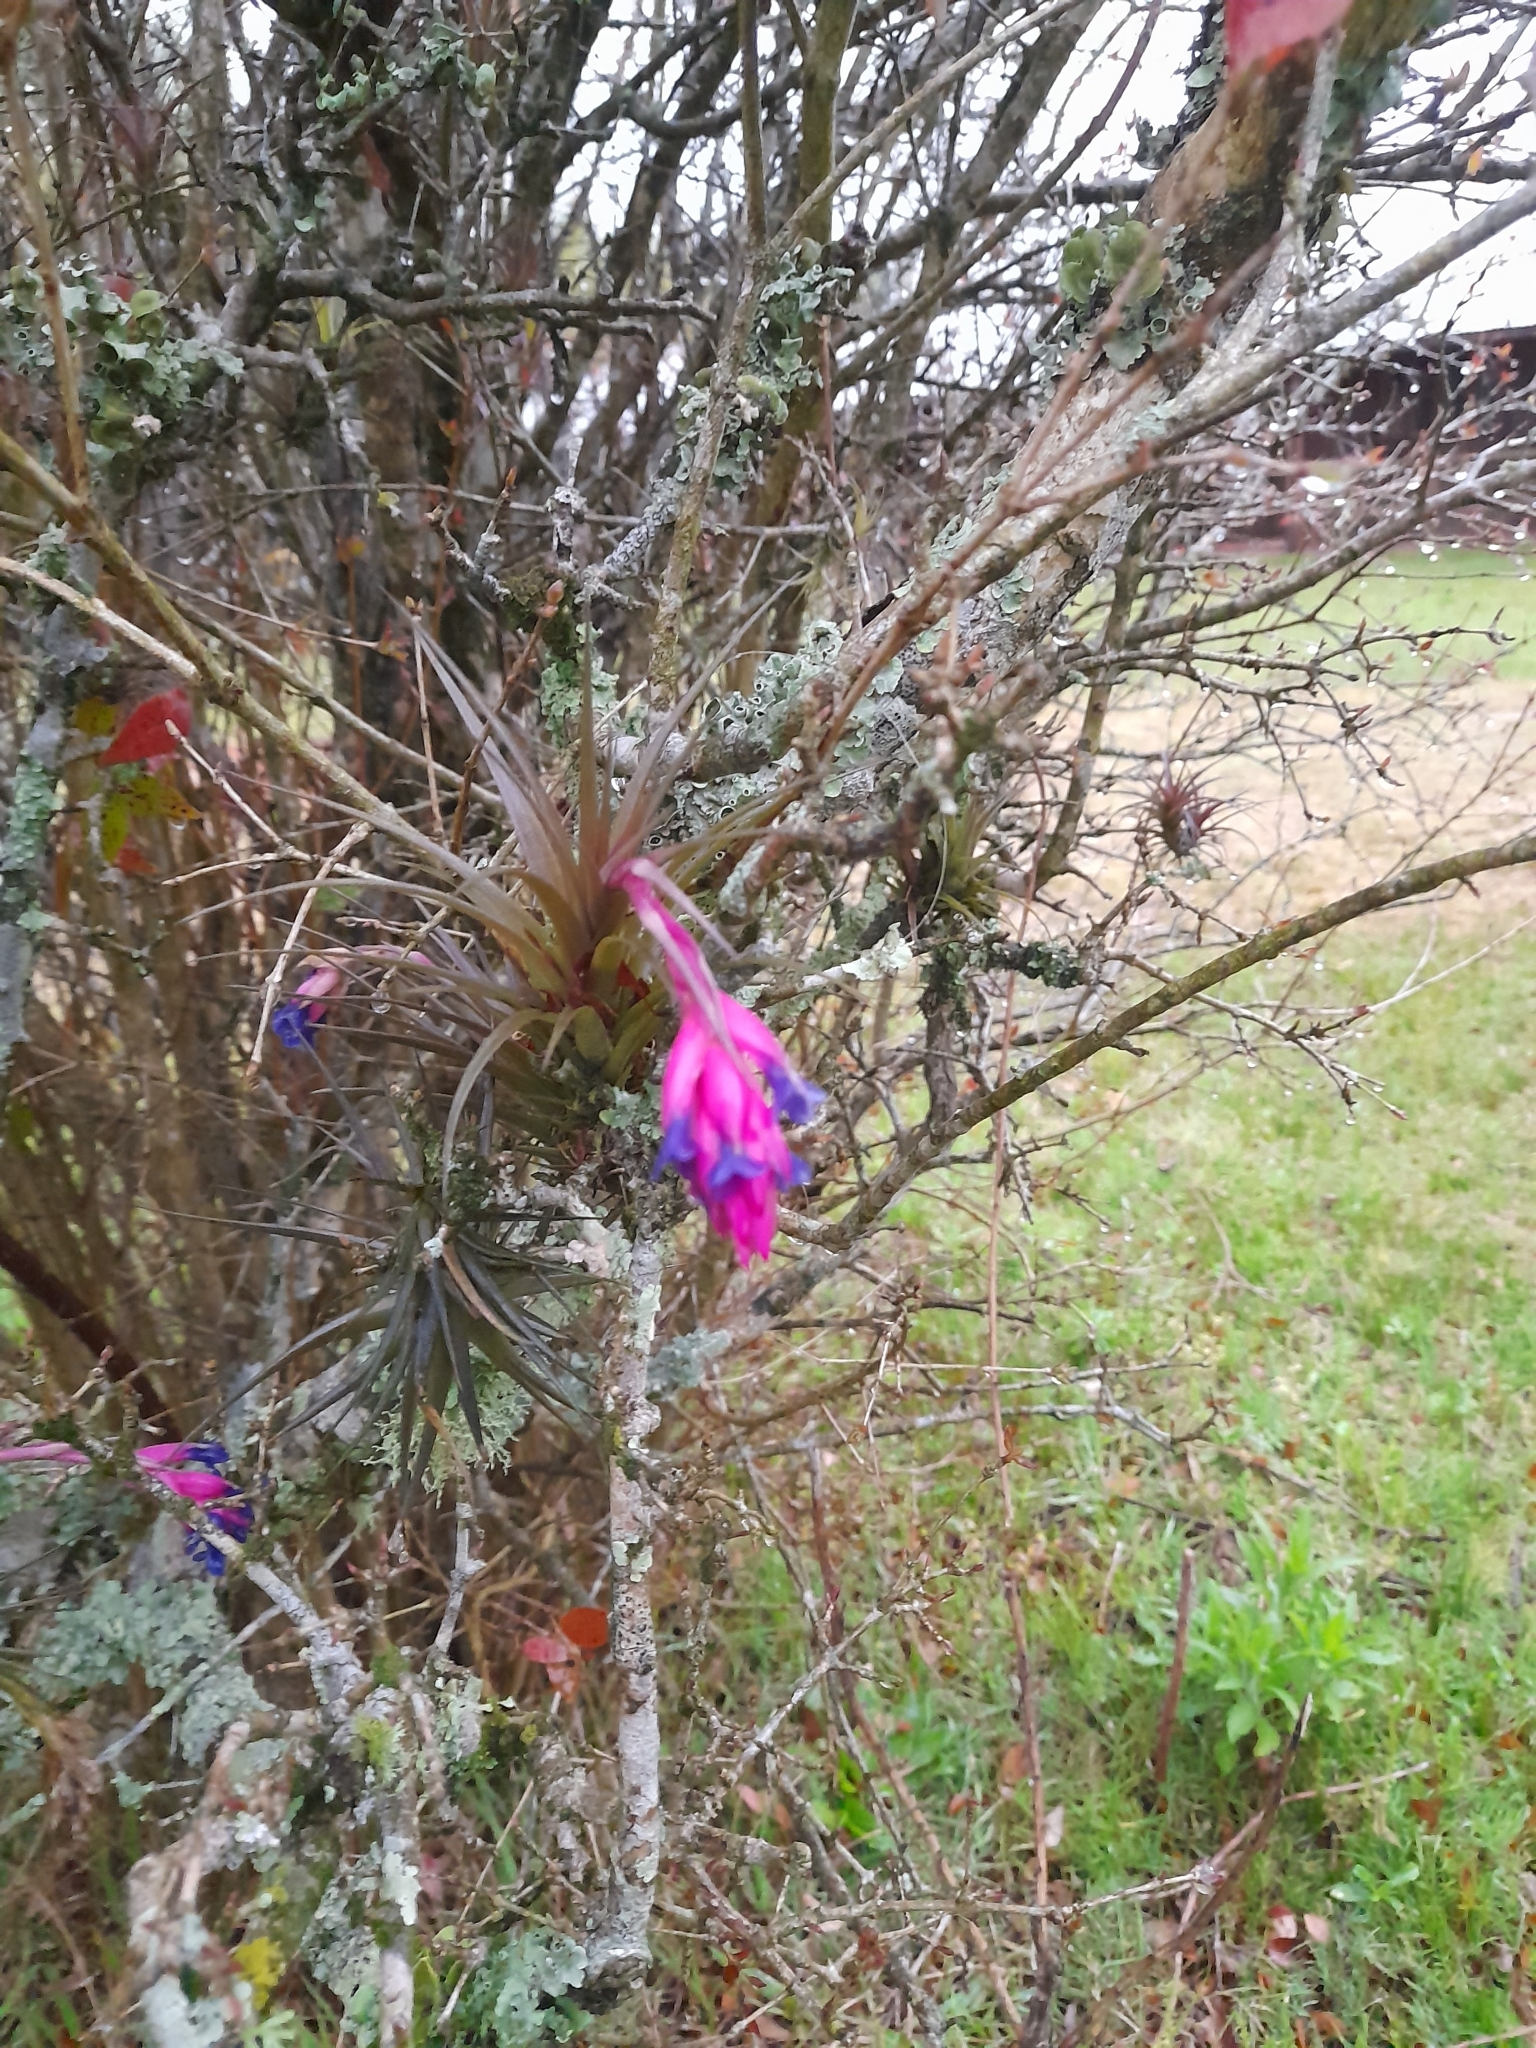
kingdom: Plantae
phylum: Tracheophyta
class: Liliopsida
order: Poales
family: Bromeliaceae
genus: Tillandsia
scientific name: Tillandsia aeranthos
